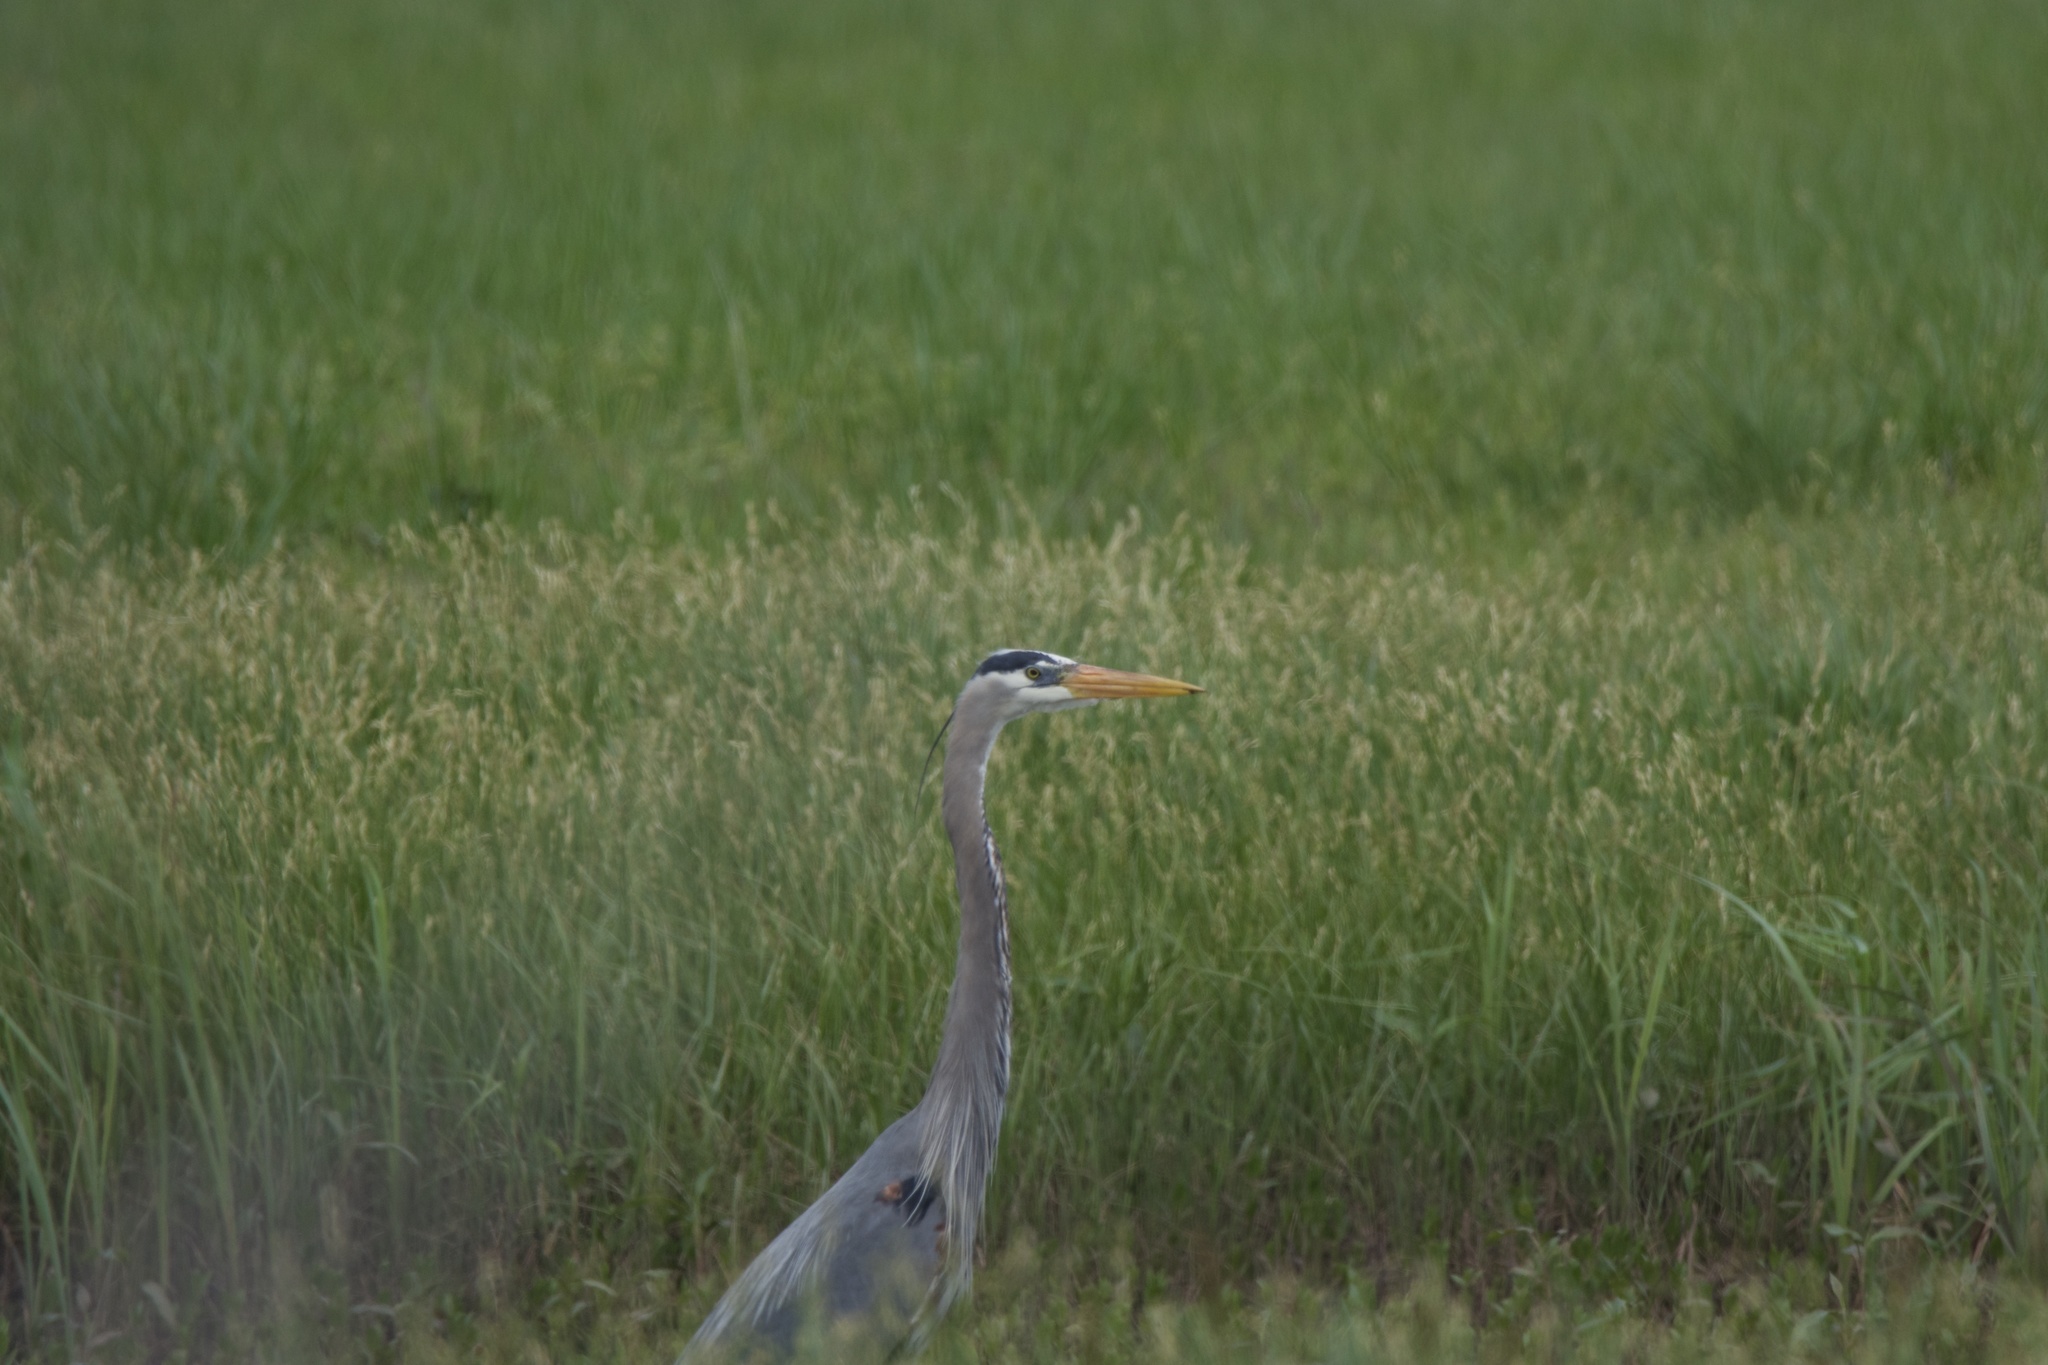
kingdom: Animalia
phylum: Chordata
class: Aves
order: Pelecaniformes
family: Ardeidae
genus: Ardea
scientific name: Ardea herodias
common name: Great blue heron
